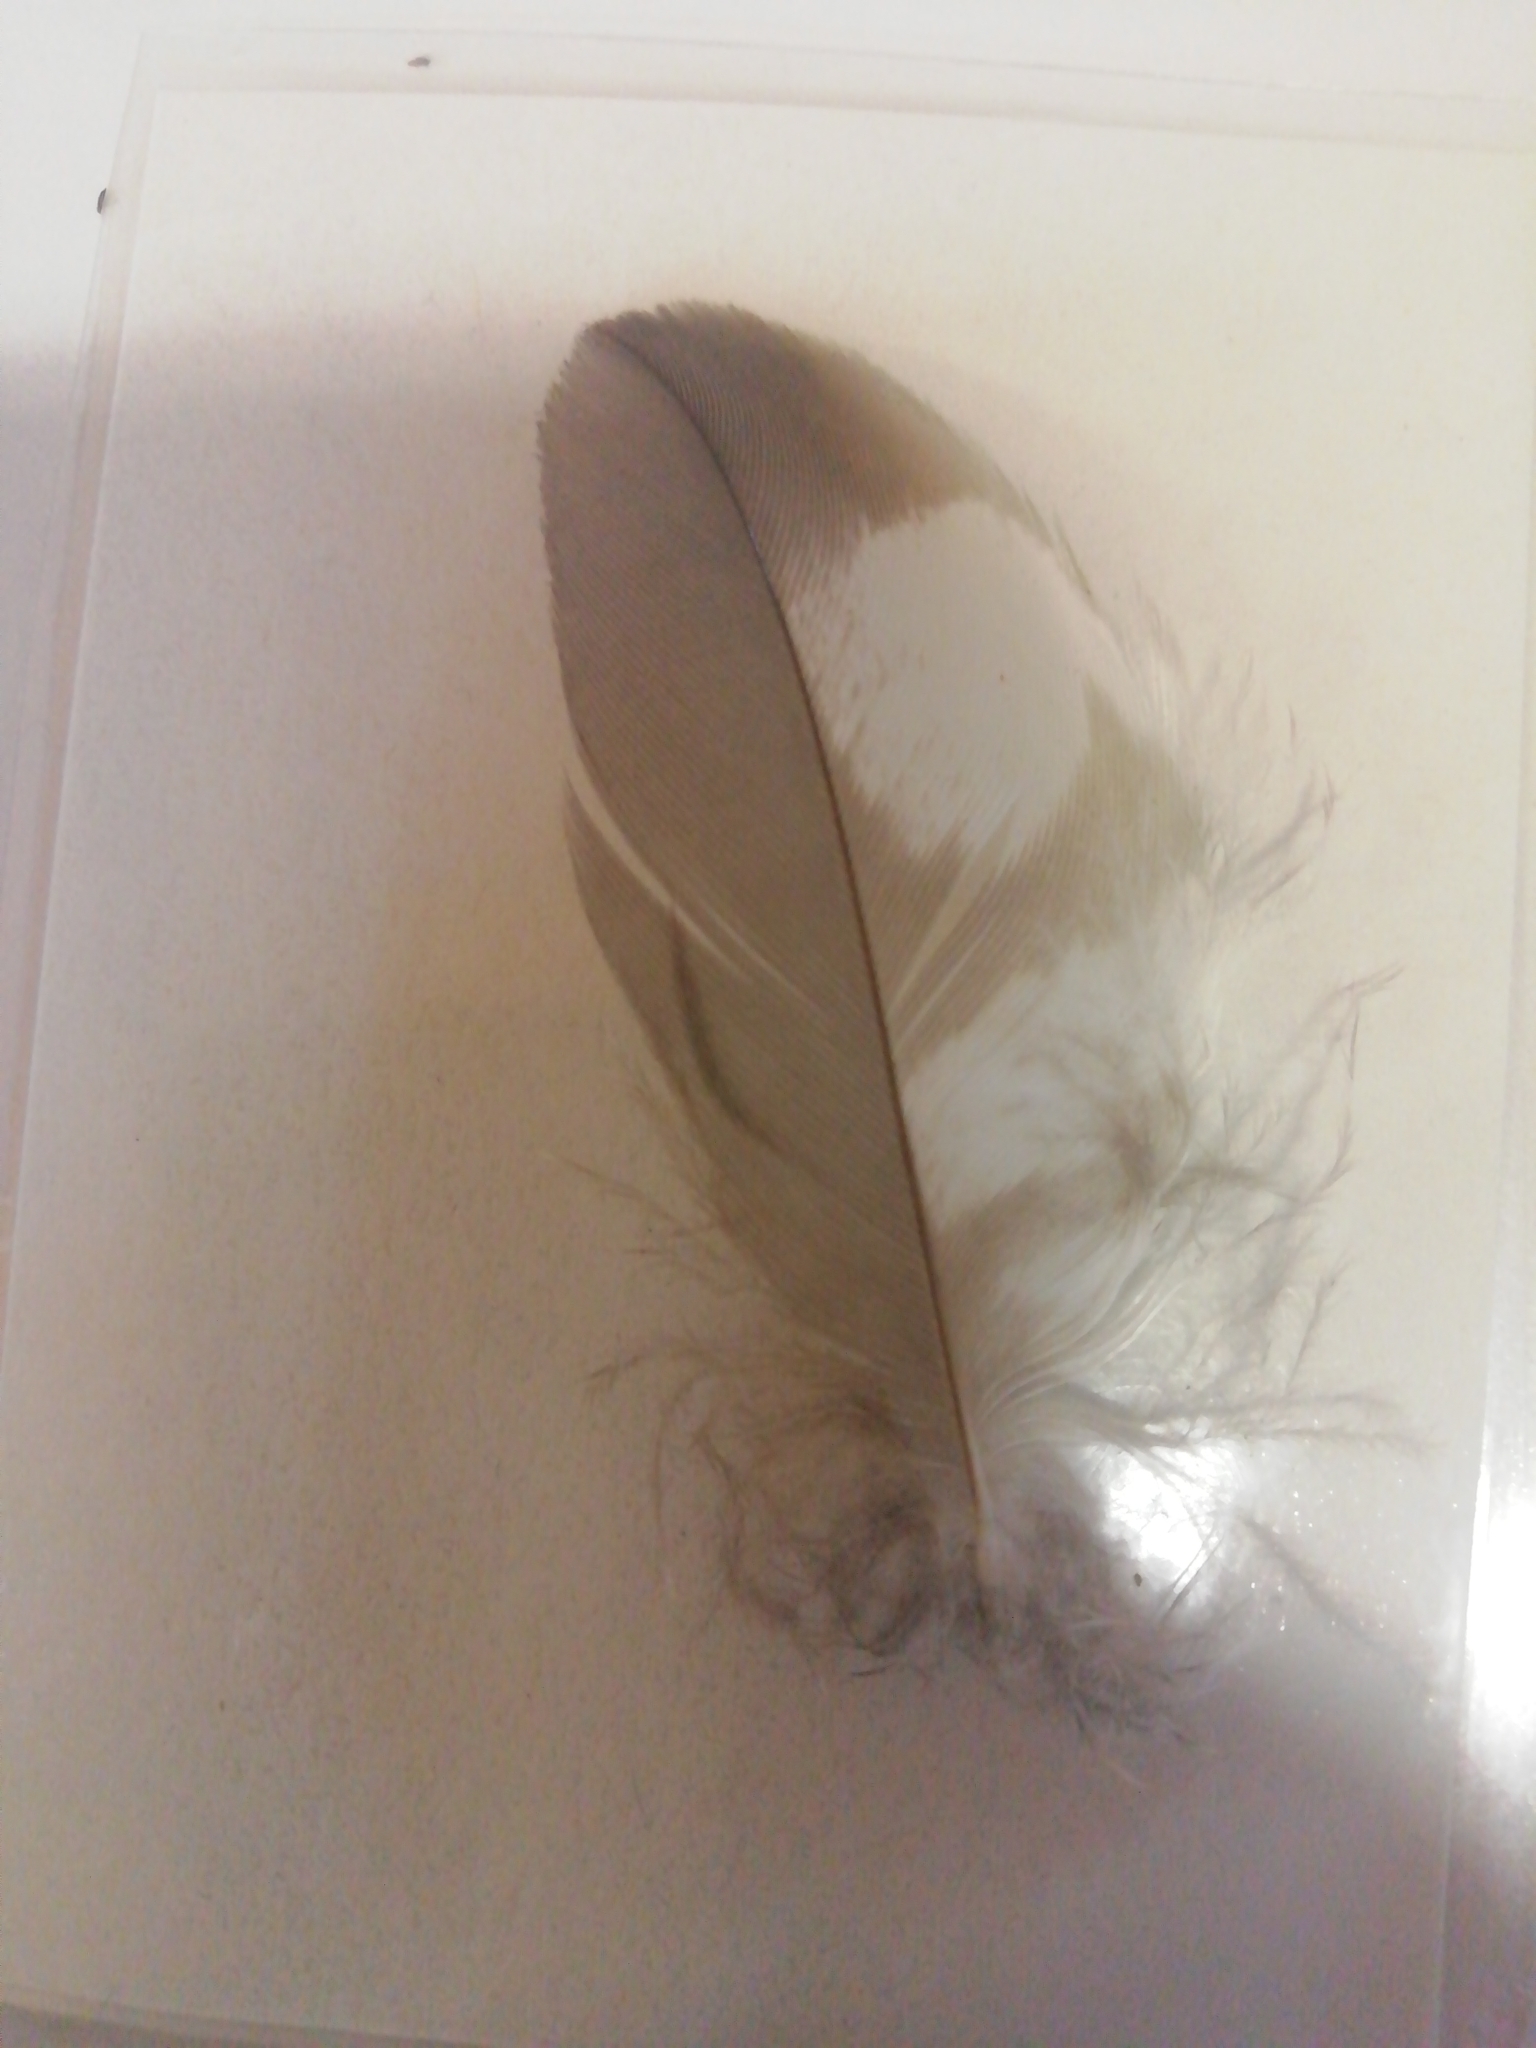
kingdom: Animalia
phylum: Chordata
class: Aves
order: Accipitriformes
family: Accipitridae
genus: Accipiter
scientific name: Accipiter nisus
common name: Eurasian sparrowhawk
